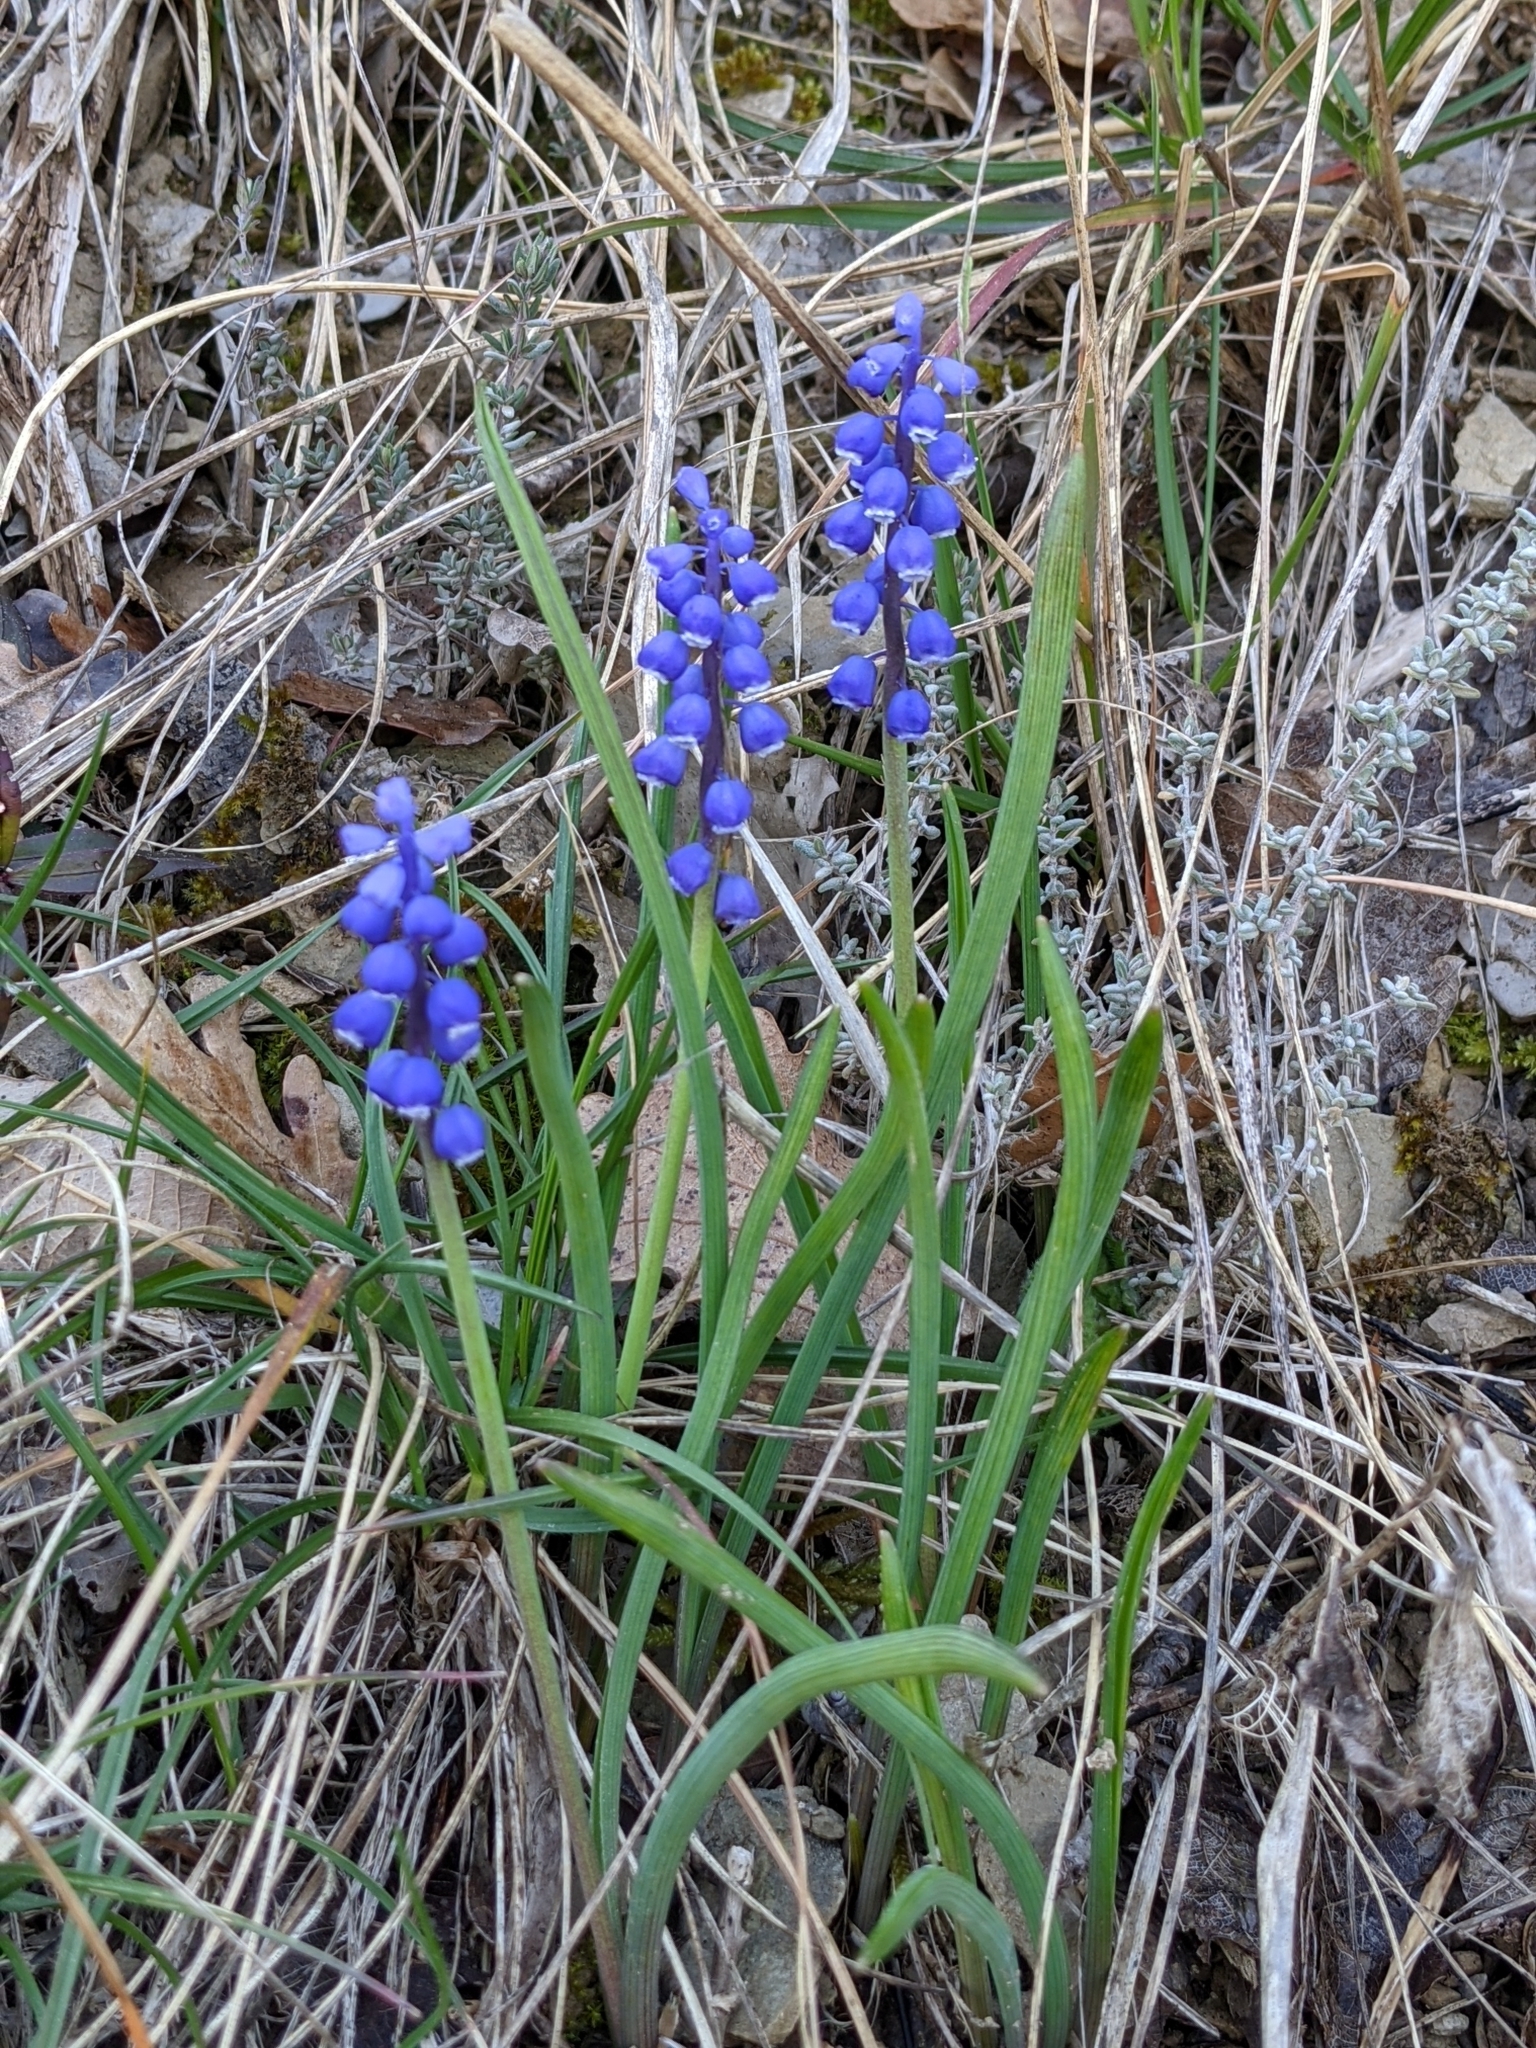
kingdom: Plantae
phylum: Tracheophyta
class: Liliopsida
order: Asparagales
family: Asparagaceae
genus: Muscari
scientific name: Muscari botryoides
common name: Compact grape-hyacinth
